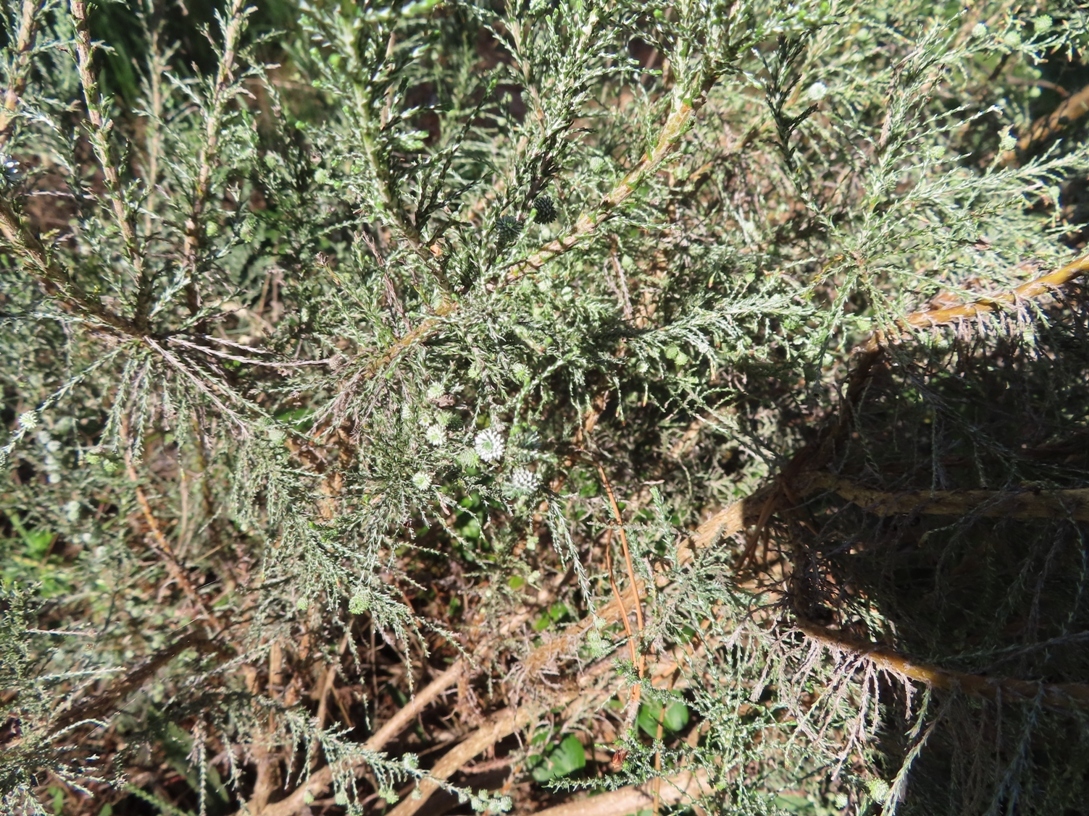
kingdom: Plantae
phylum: Tracheophyta
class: Magnoliopsida
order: Asterales
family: Asteraceae
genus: Dicerothamnus
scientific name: Dicerothamnus rhinocerotis
